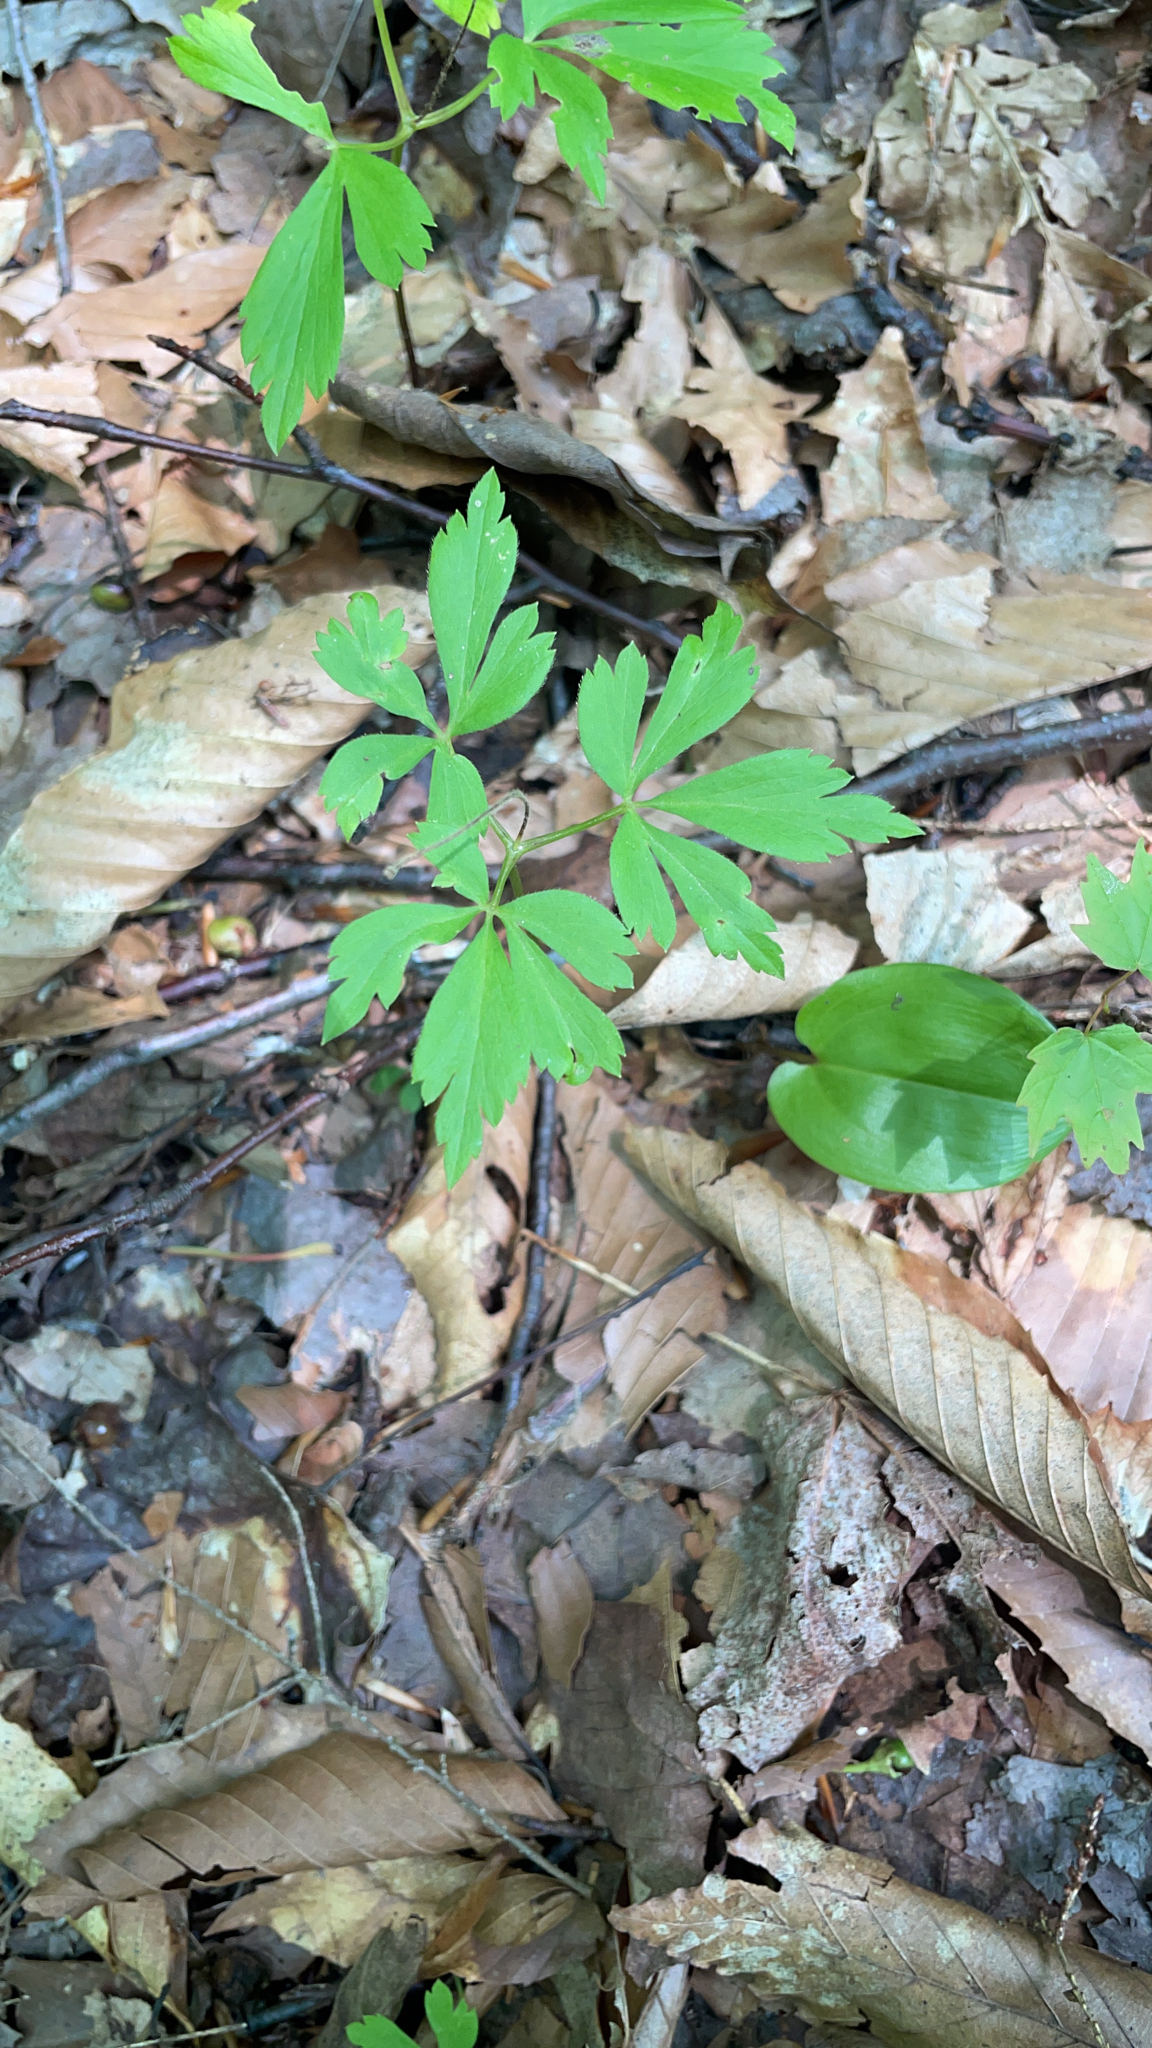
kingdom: Plantae
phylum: Tracheophyta
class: Magnoliopsida
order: Ranunculales
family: Ranunculaceae
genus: Anemone
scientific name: Anemone quinquefolia
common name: Wood anemone
